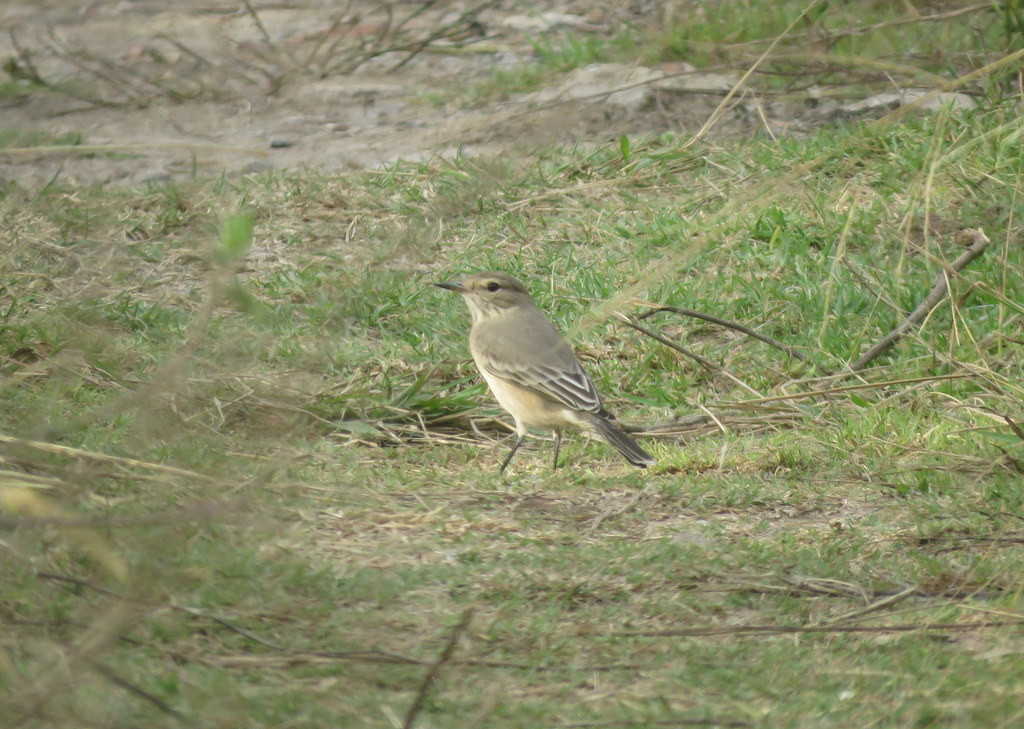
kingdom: Animalia
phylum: Chordata
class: Aves
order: Passeriformes
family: Tyrannidae
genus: Agriornis
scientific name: Agriornis murinus
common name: Lesser shrike-tyrant
